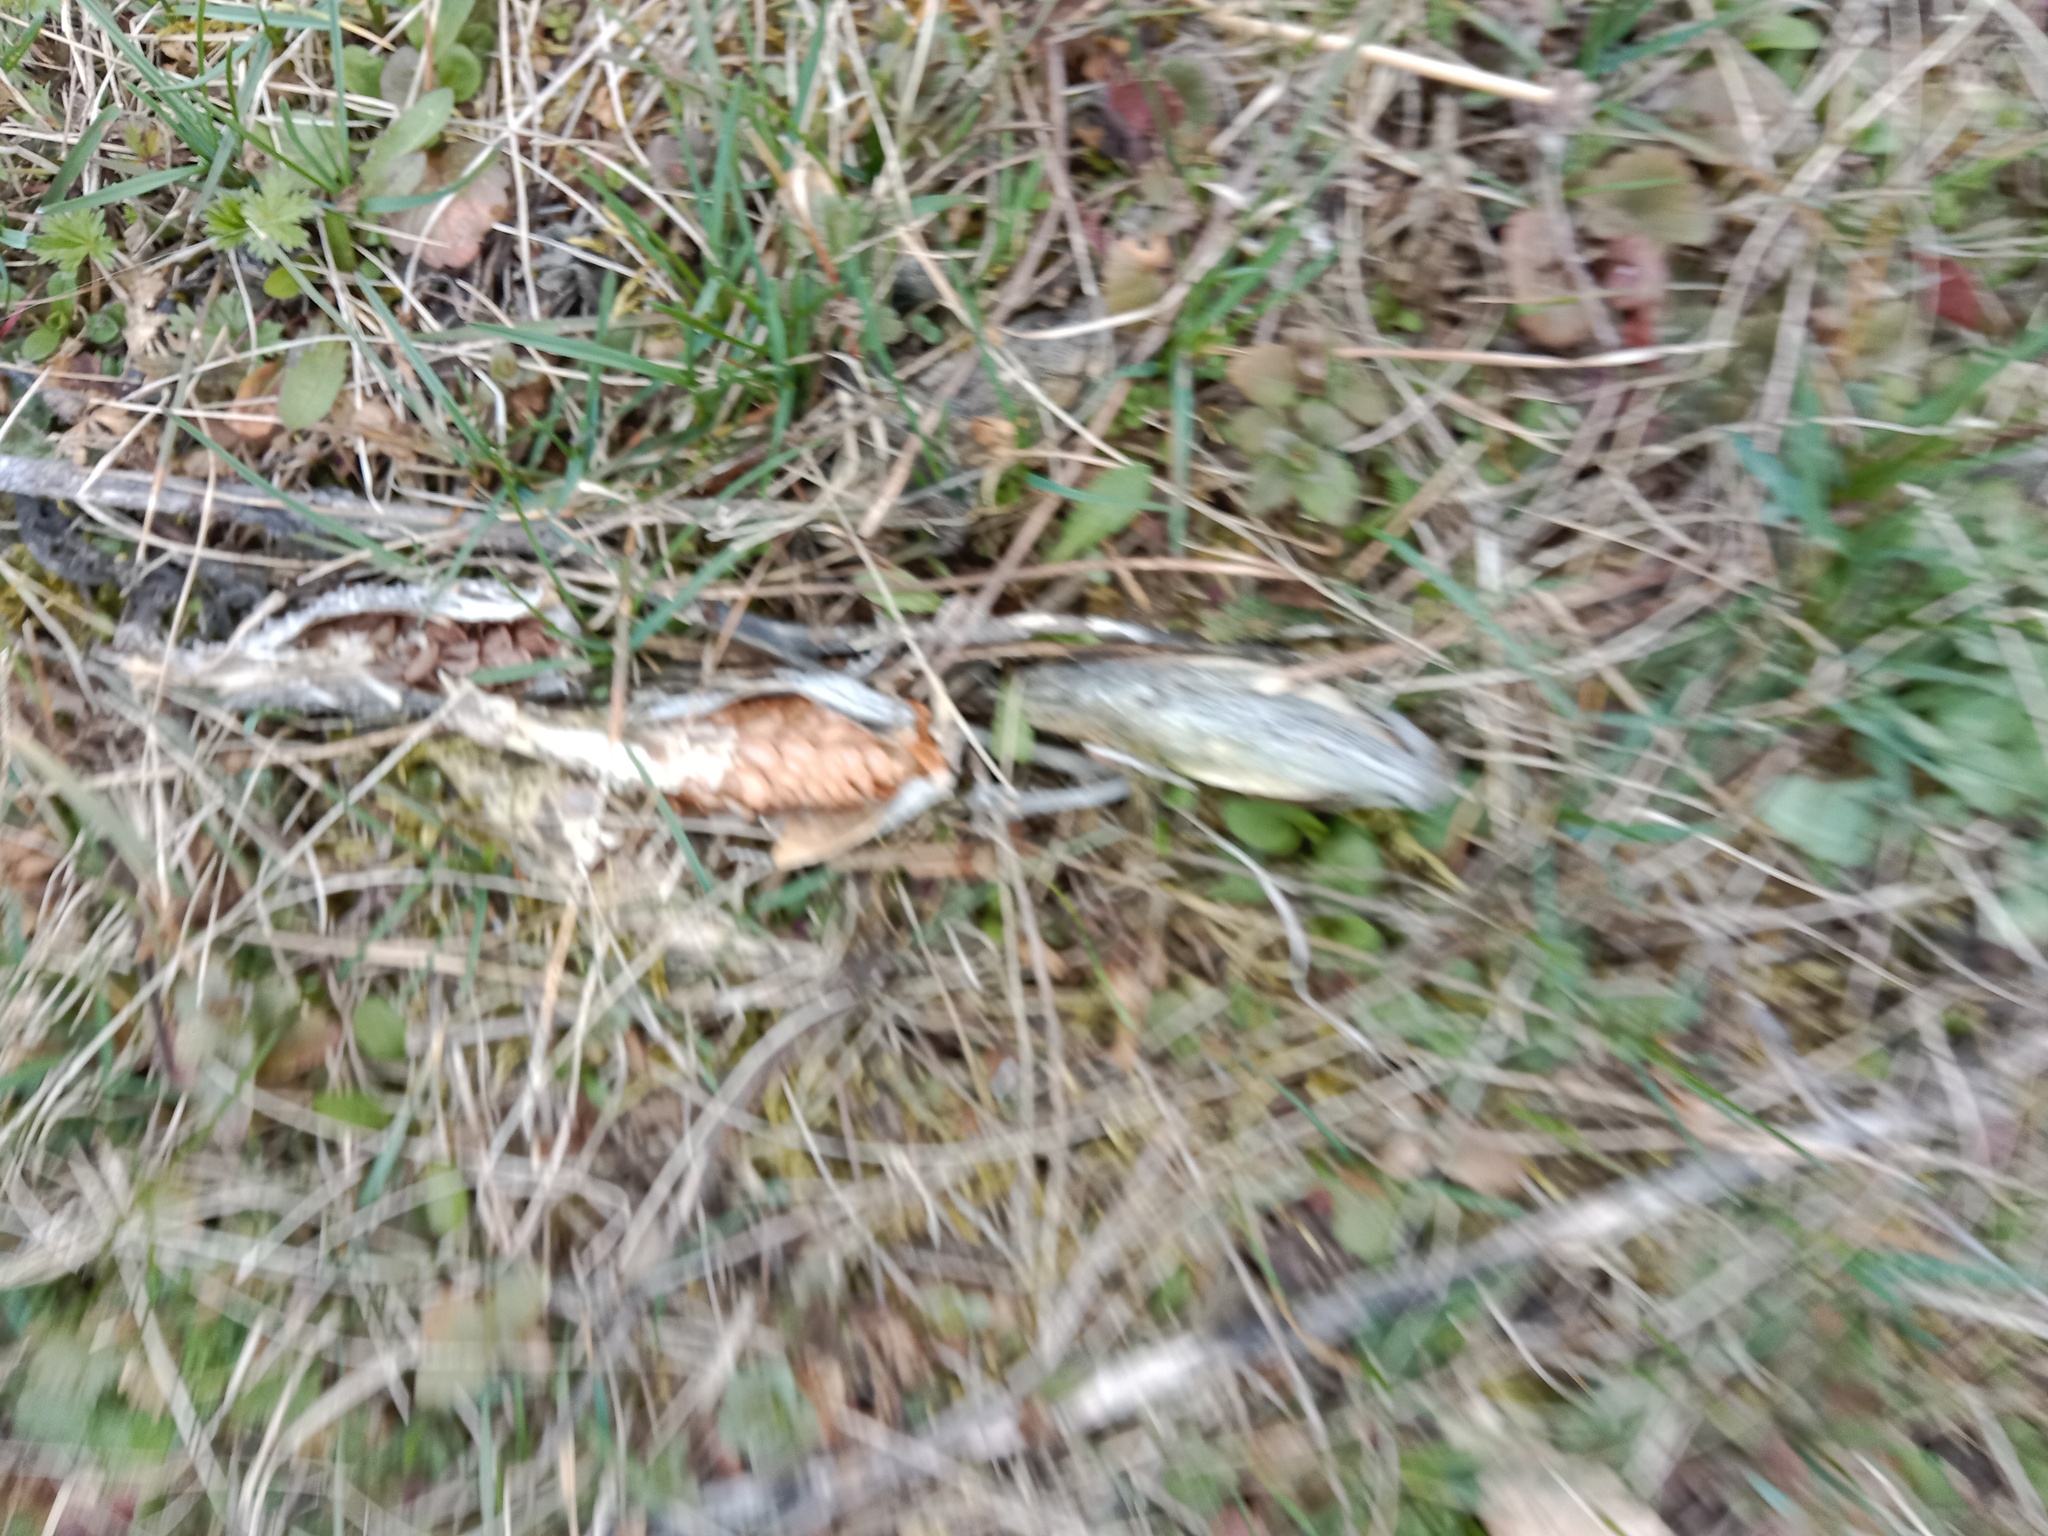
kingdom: Plantae
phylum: Tracheophyta
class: Magnoliopsida
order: Gentianales
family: Apocynaceae
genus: Asclepias
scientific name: Asclepias syriaca
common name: Common milkweed
